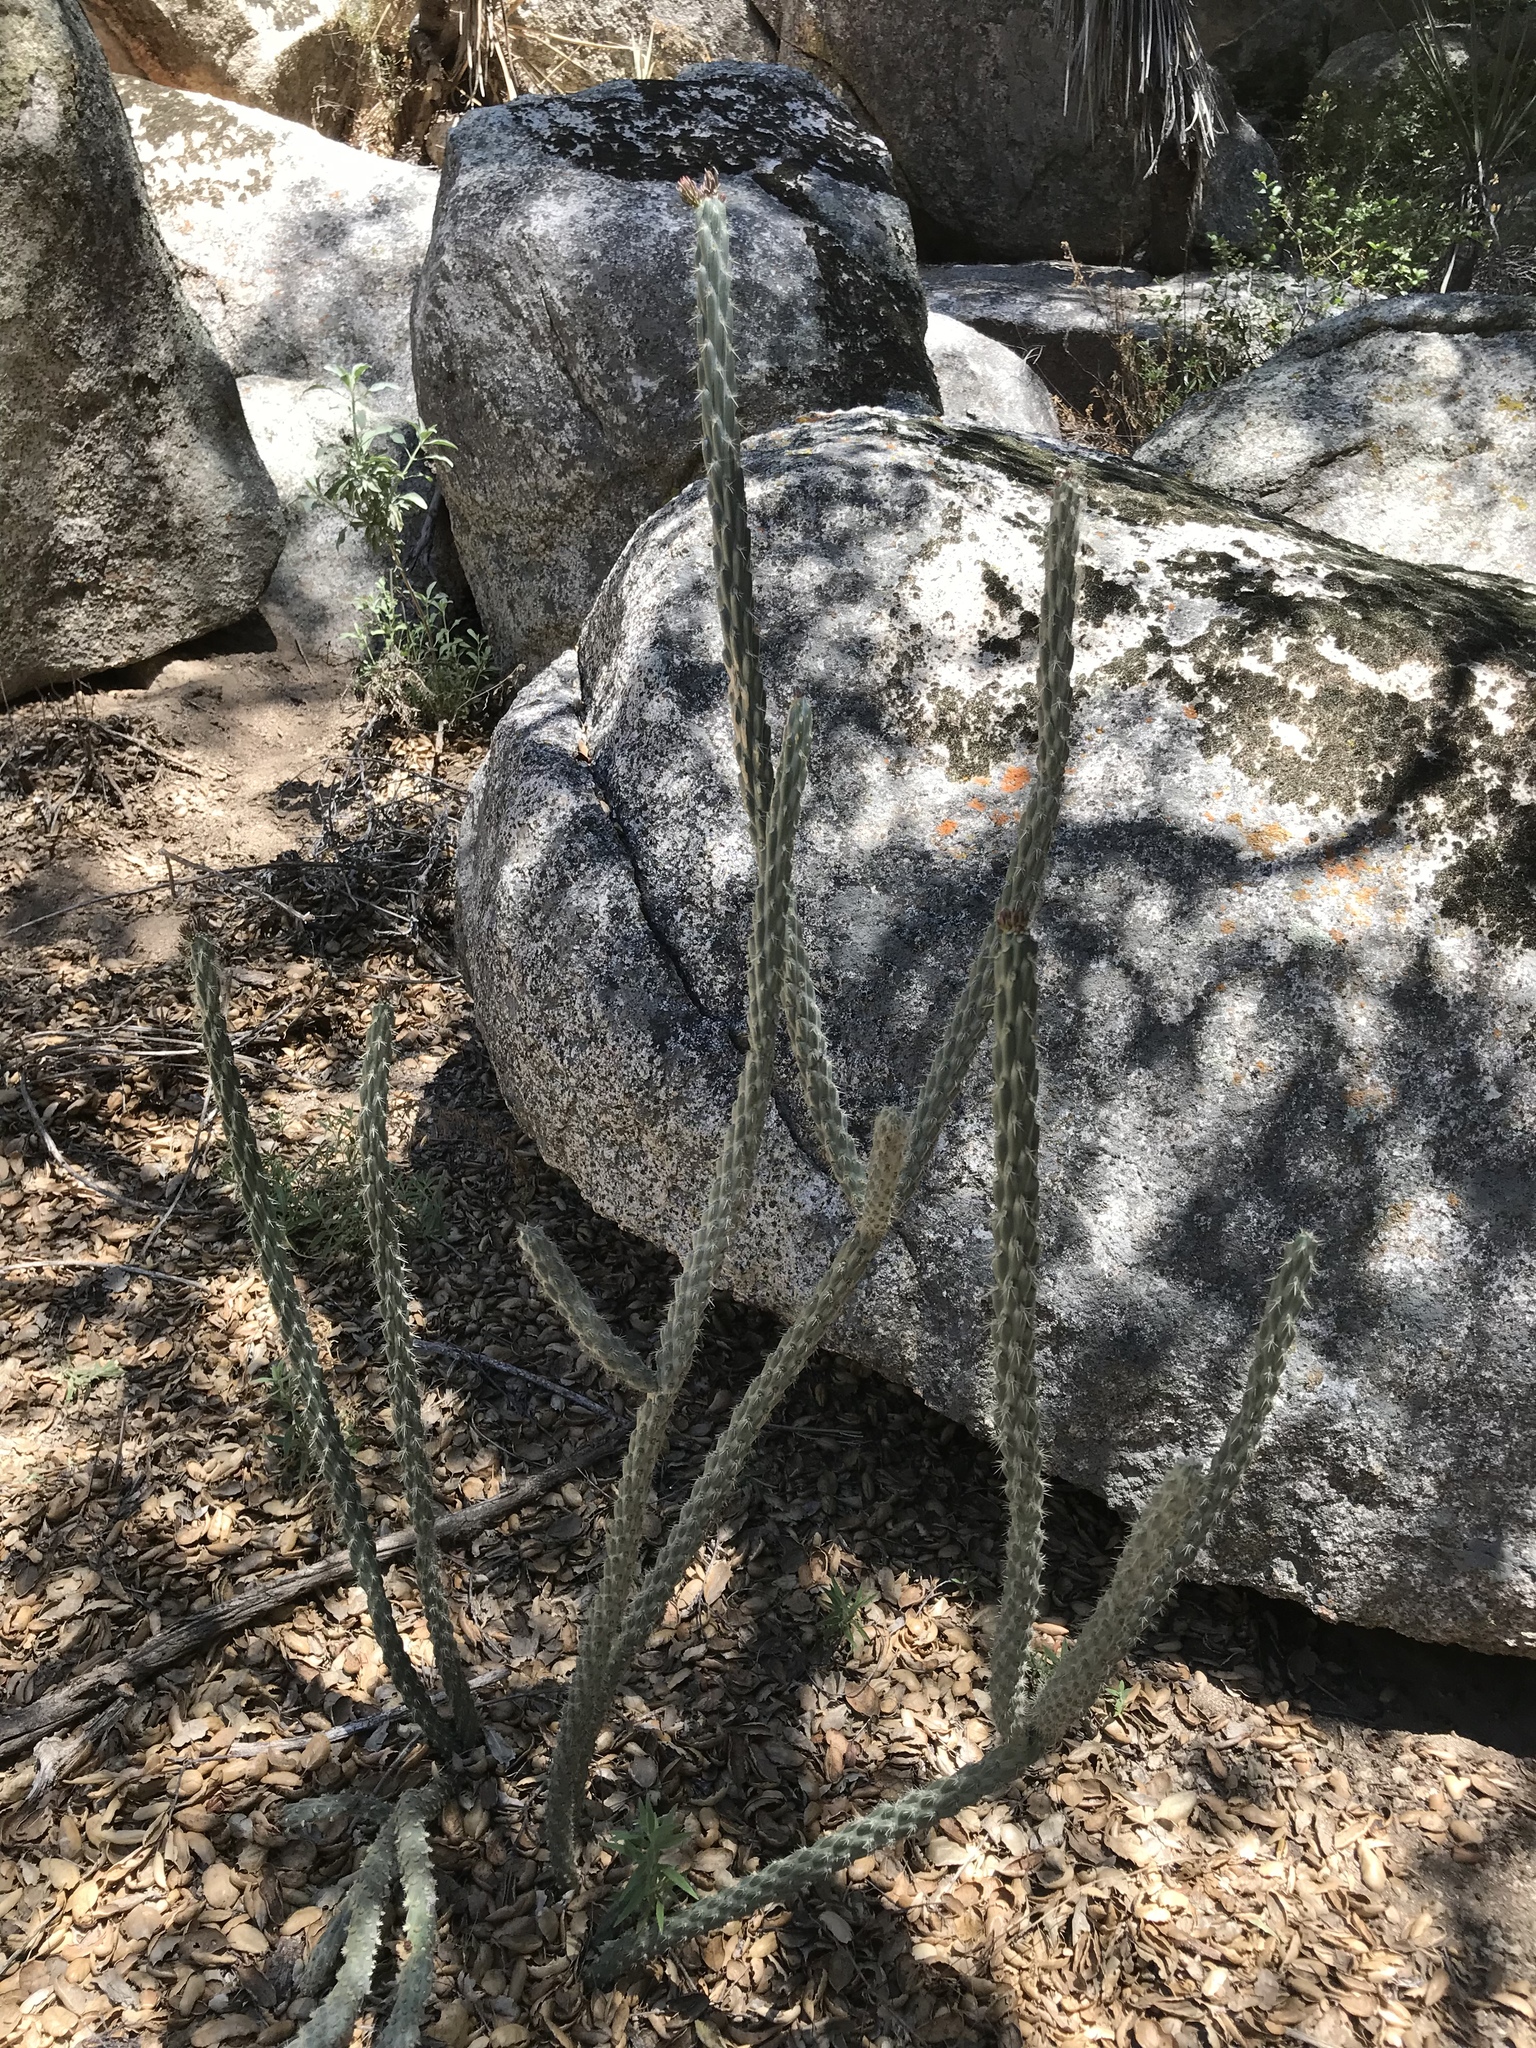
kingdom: Plantae
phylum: Tracheophyta
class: Magnoliopsida
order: Caryophyllales
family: Cactaceae
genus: Cylindropuntia
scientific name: Cylindropuntia bernardina
